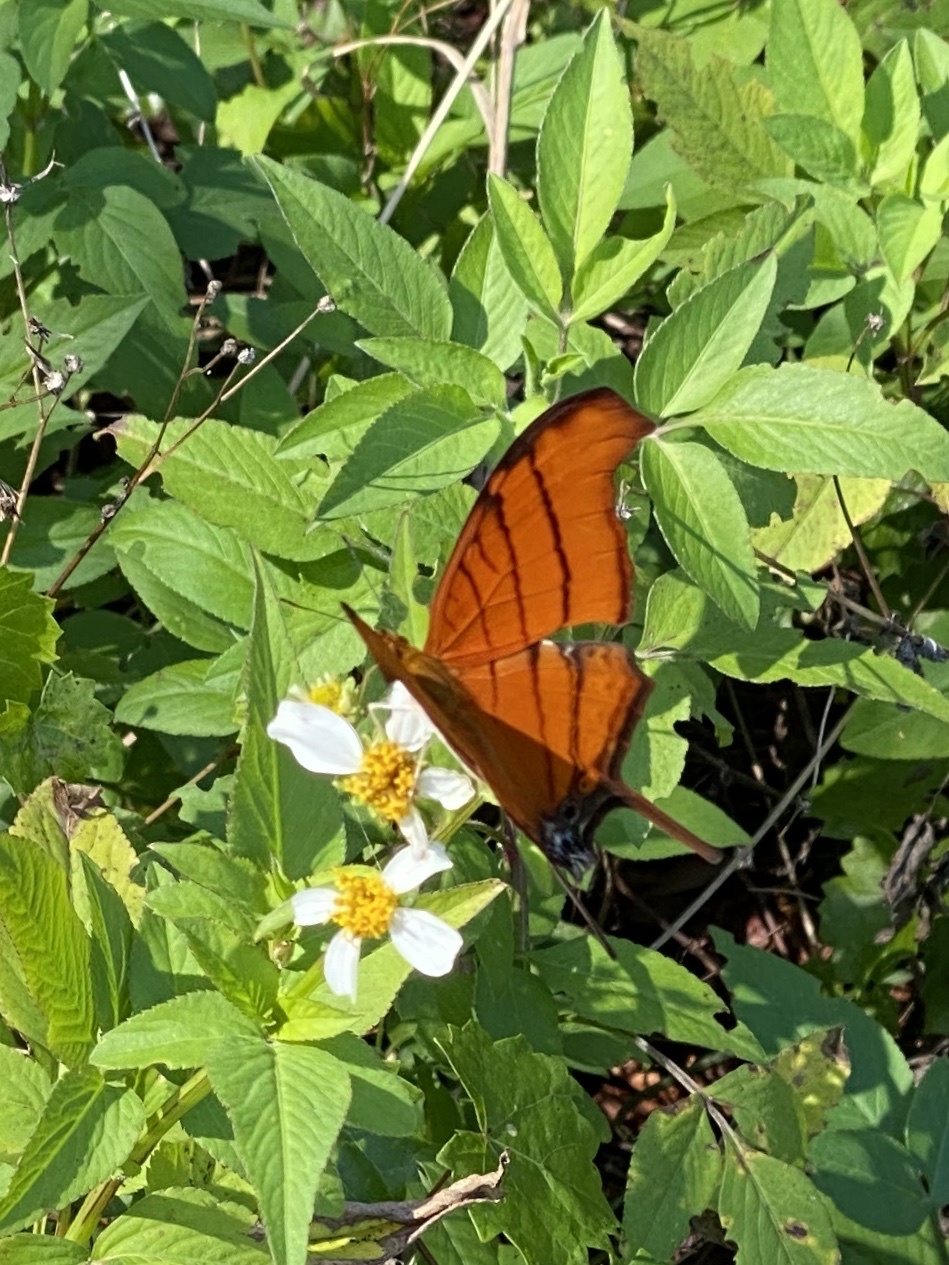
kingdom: Animalia
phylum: Arthropoda
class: Insecta
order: Lepidoptera
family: Nymphalidae
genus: Marpesia
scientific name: Marpesia petreus
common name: Red dagger wing
